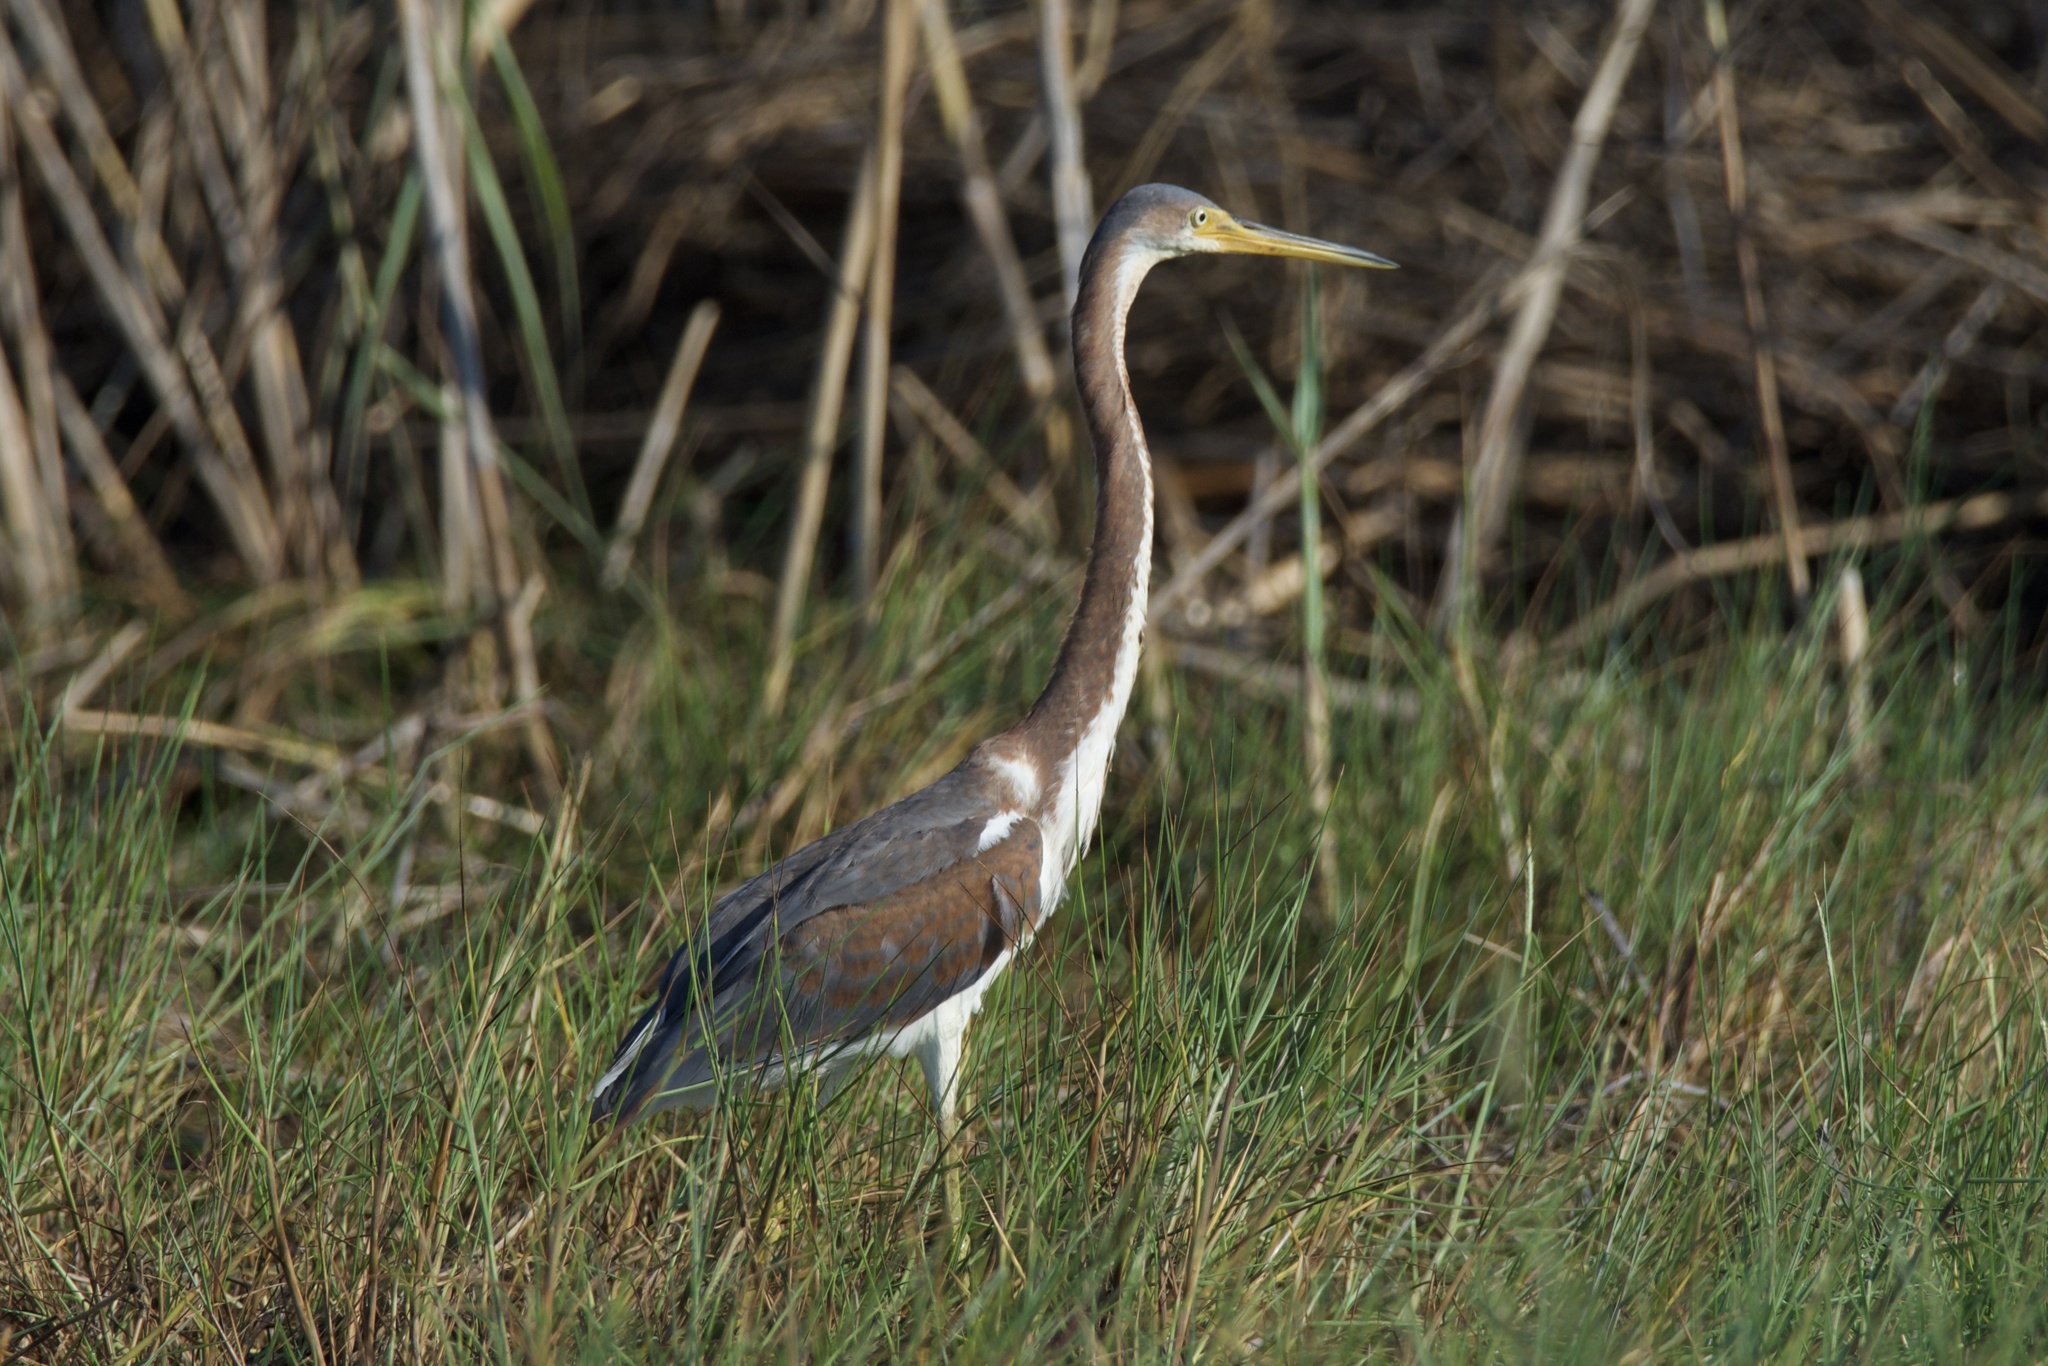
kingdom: Animalia
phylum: Chordata
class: Aves
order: Pelecaniformes
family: Ardeidae
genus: Egretta
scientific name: Egretta tricolor
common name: Tricolored heron
